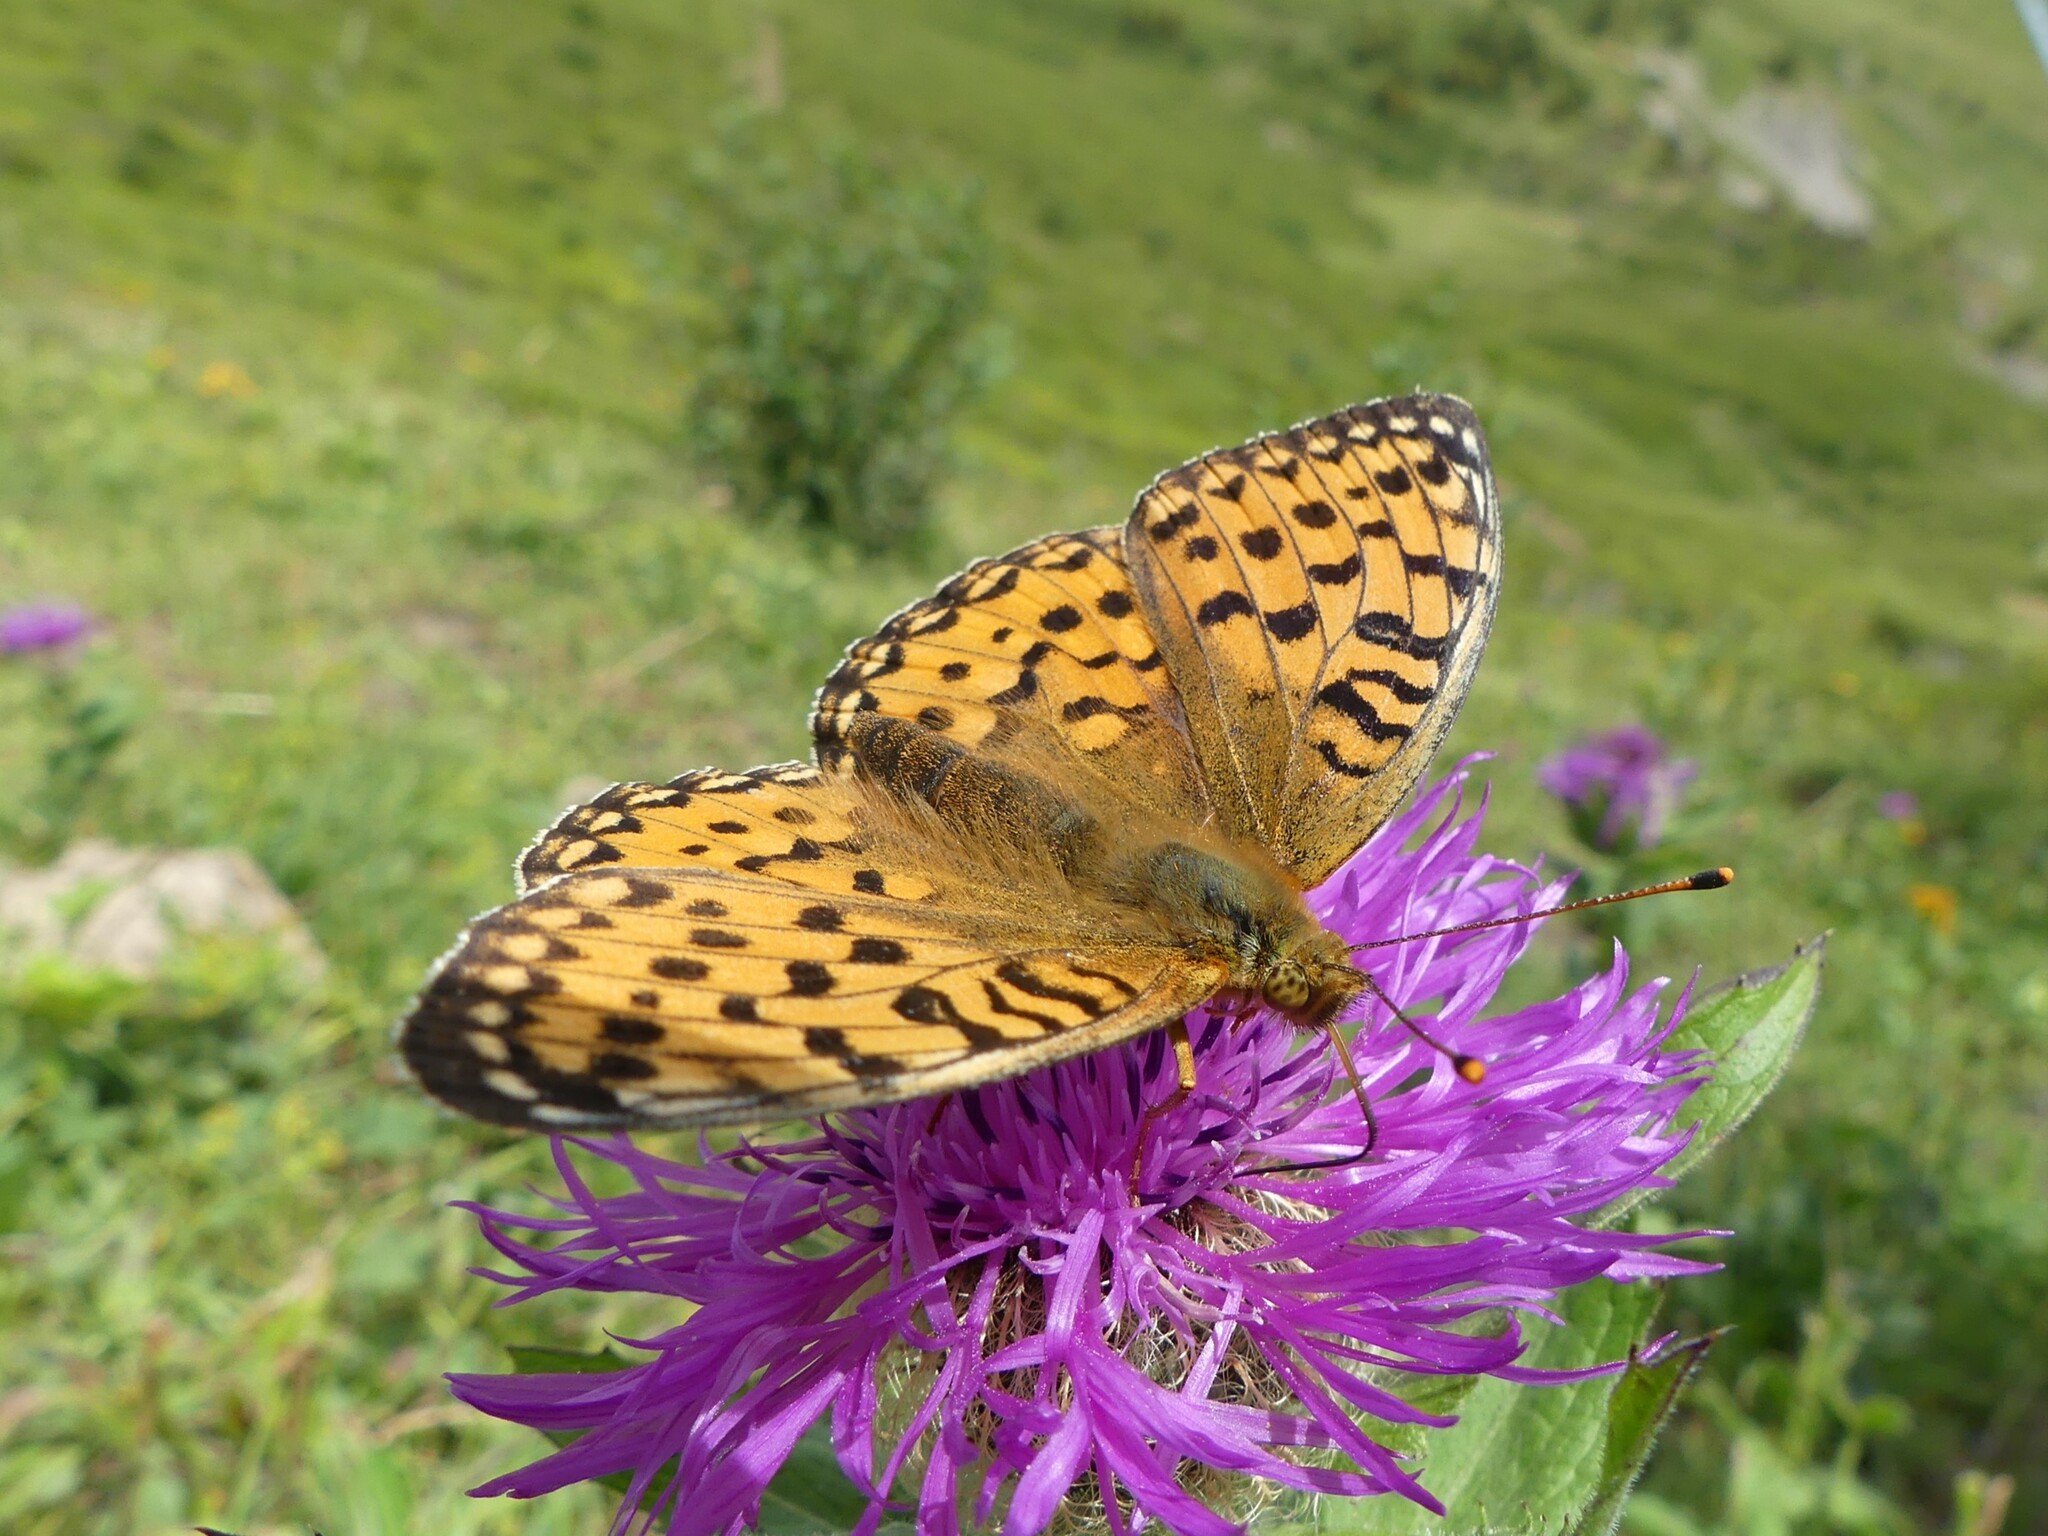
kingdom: Animalia
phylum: Arthropoda
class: Insecta
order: Lepidoptera
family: Nymphalidae
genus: Speyeria
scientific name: Speyeria aglaja
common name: Dark green fritillary
